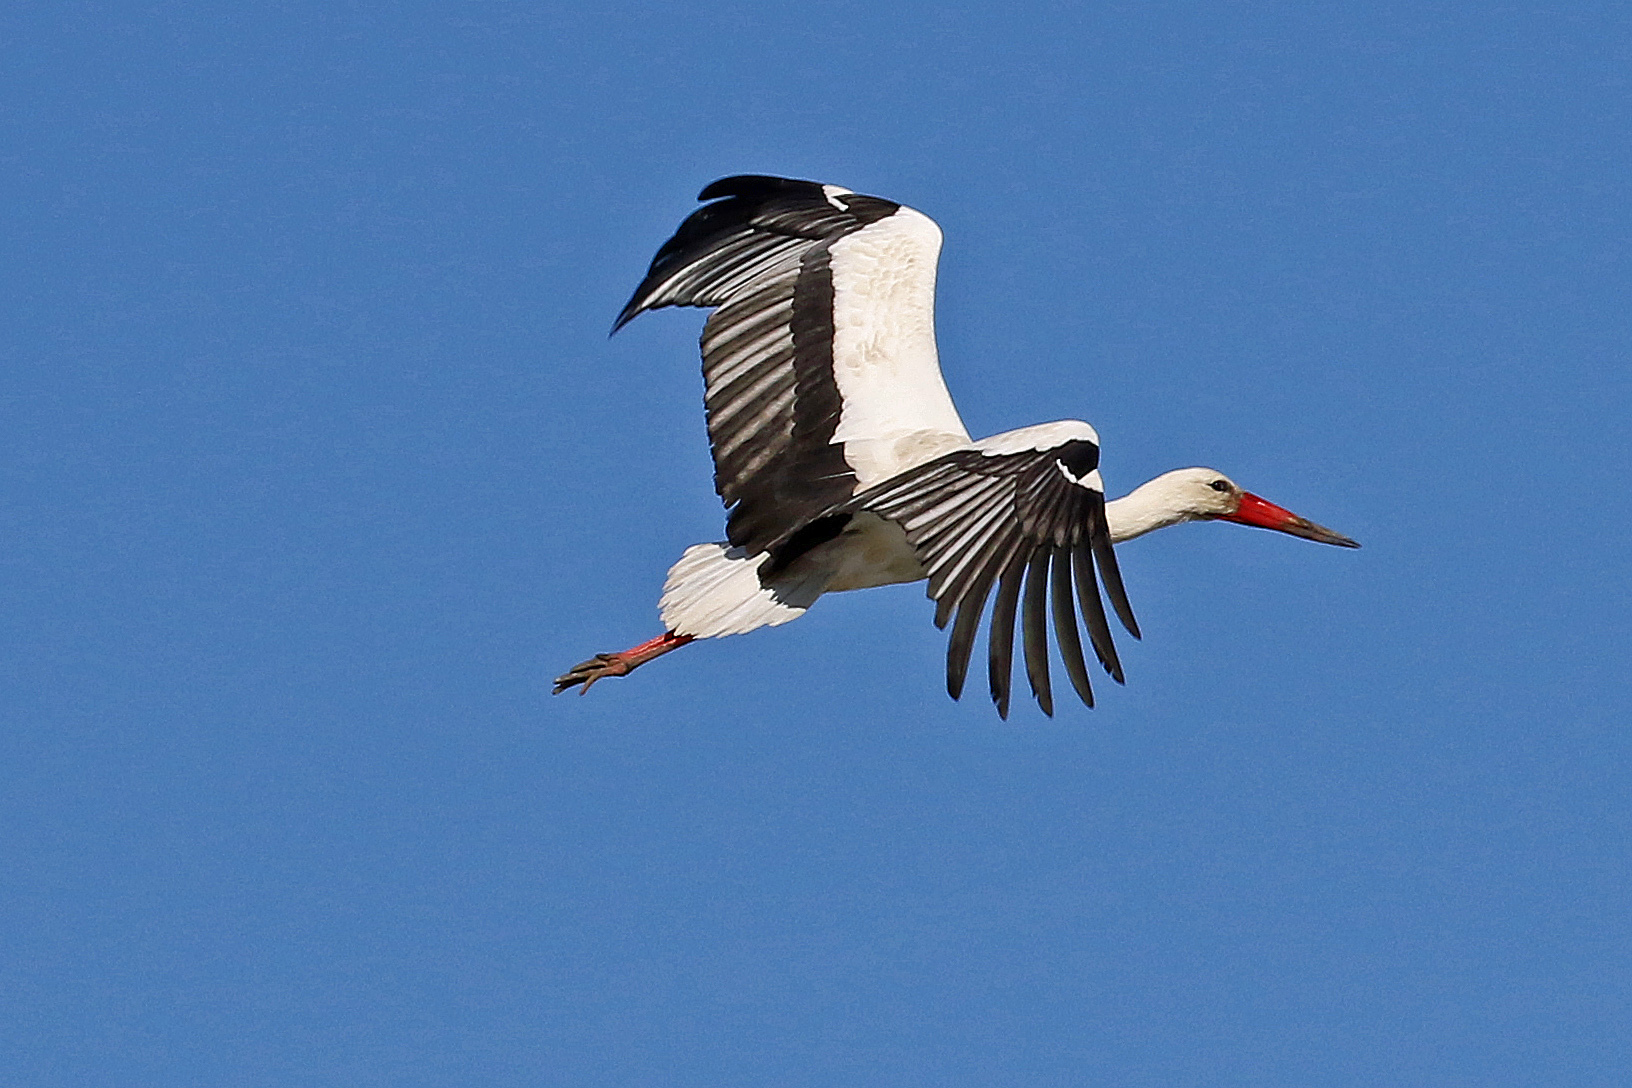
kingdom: Animalia
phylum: Chordata
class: Aves
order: Ciconiiformes
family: Ciconiidae
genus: Ciconia
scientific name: Ciconia ciconia
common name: White stork
